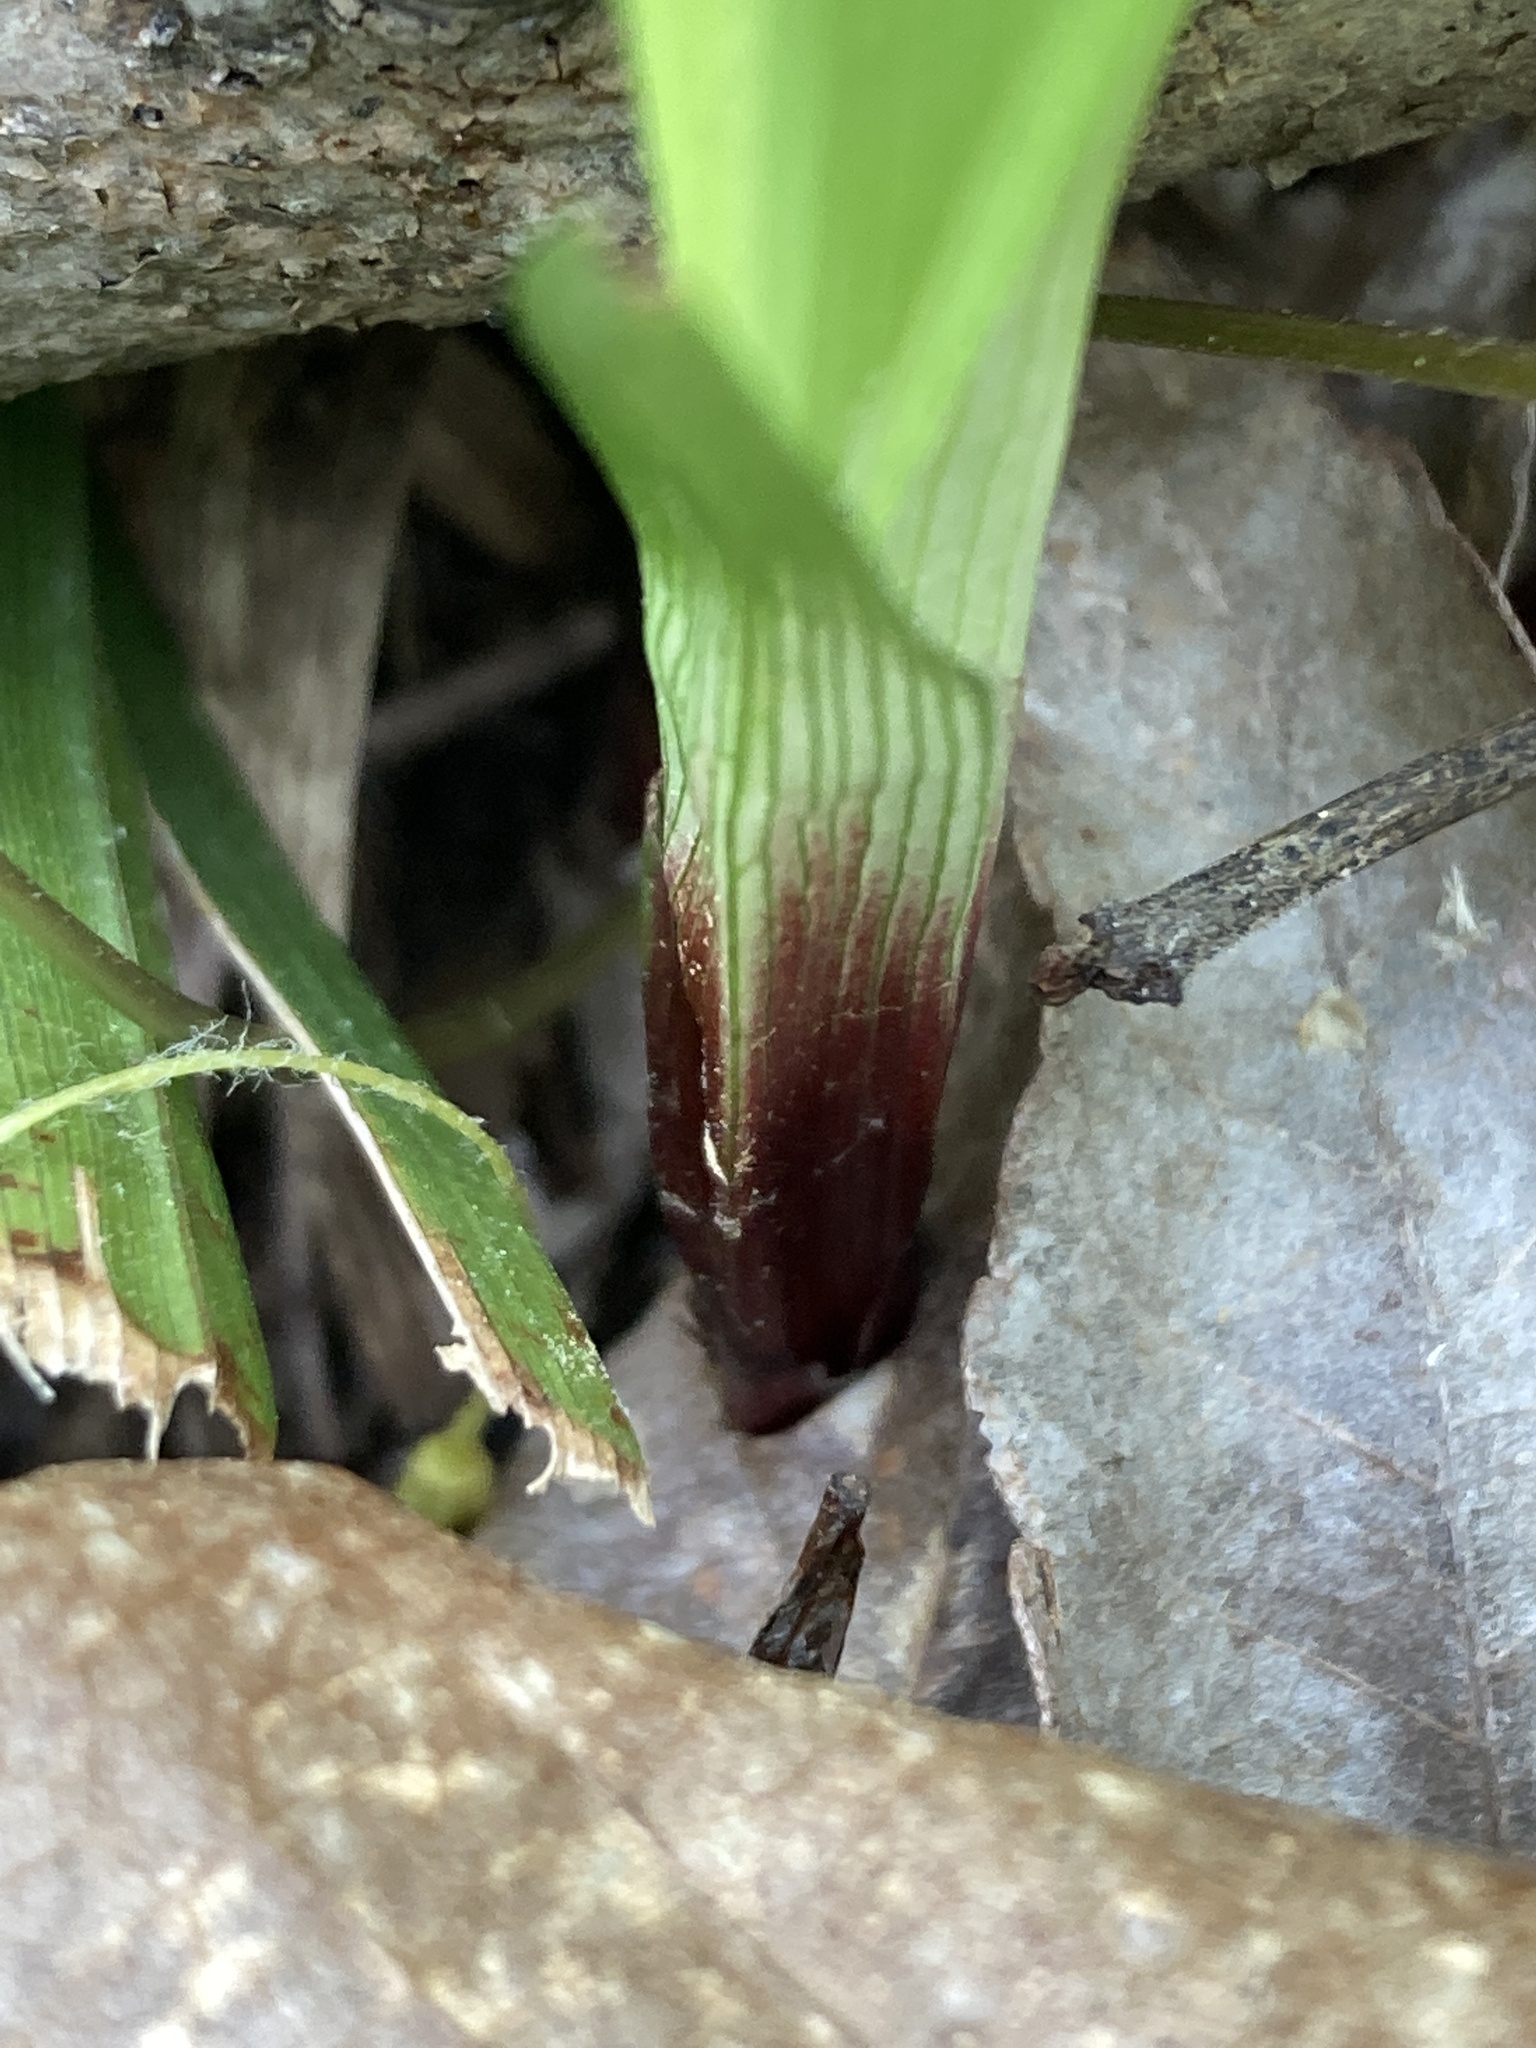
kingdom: Plantae
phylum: Tracheophyta
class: Liliopsida
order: Poales
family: Cyperaceae
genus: Carex
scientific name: Carex plantaginea
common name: Plantain-leaved sedge
